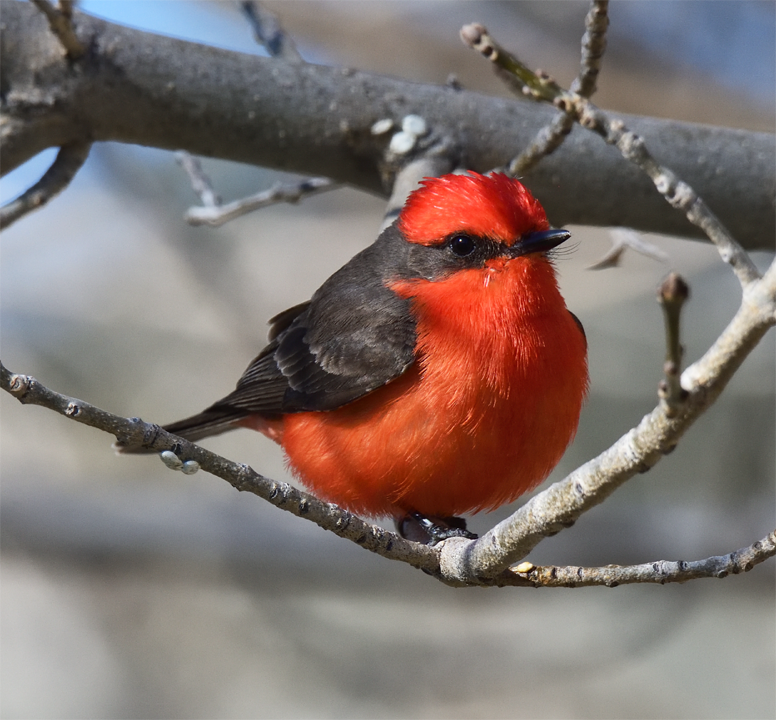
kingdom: Animalia
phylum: Chordata
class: Aves
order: Passeriformes
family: Tyrannidae
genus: Pyrocephalus
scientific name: Pyrocephalus rubinus
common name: Vermilion flycatcher
